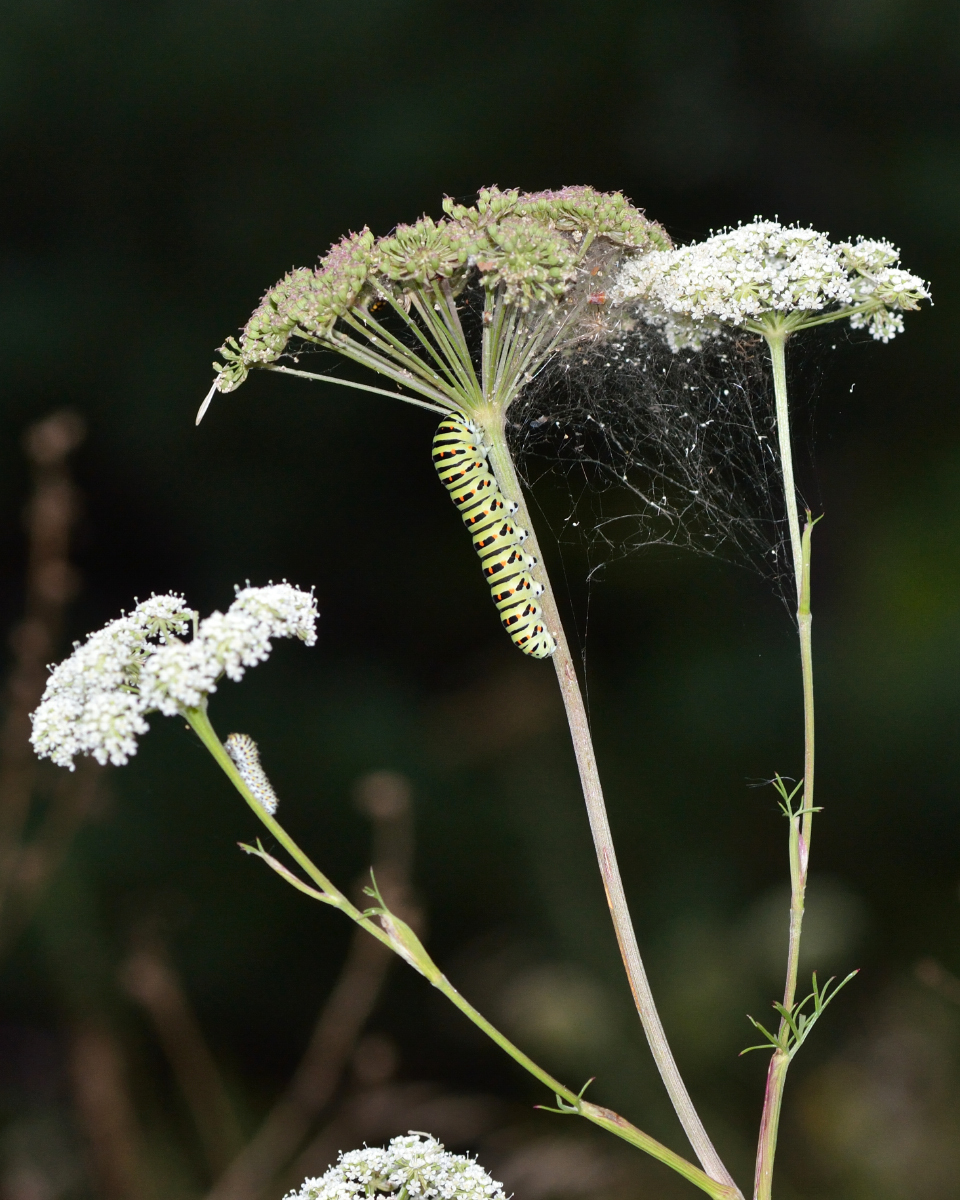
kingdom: Animalia
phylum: Arthropoda
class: Insecta
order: Lepidoptera
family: Papilionidae
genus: Papilio
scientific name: Papilio machaon
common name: Swallowtail
